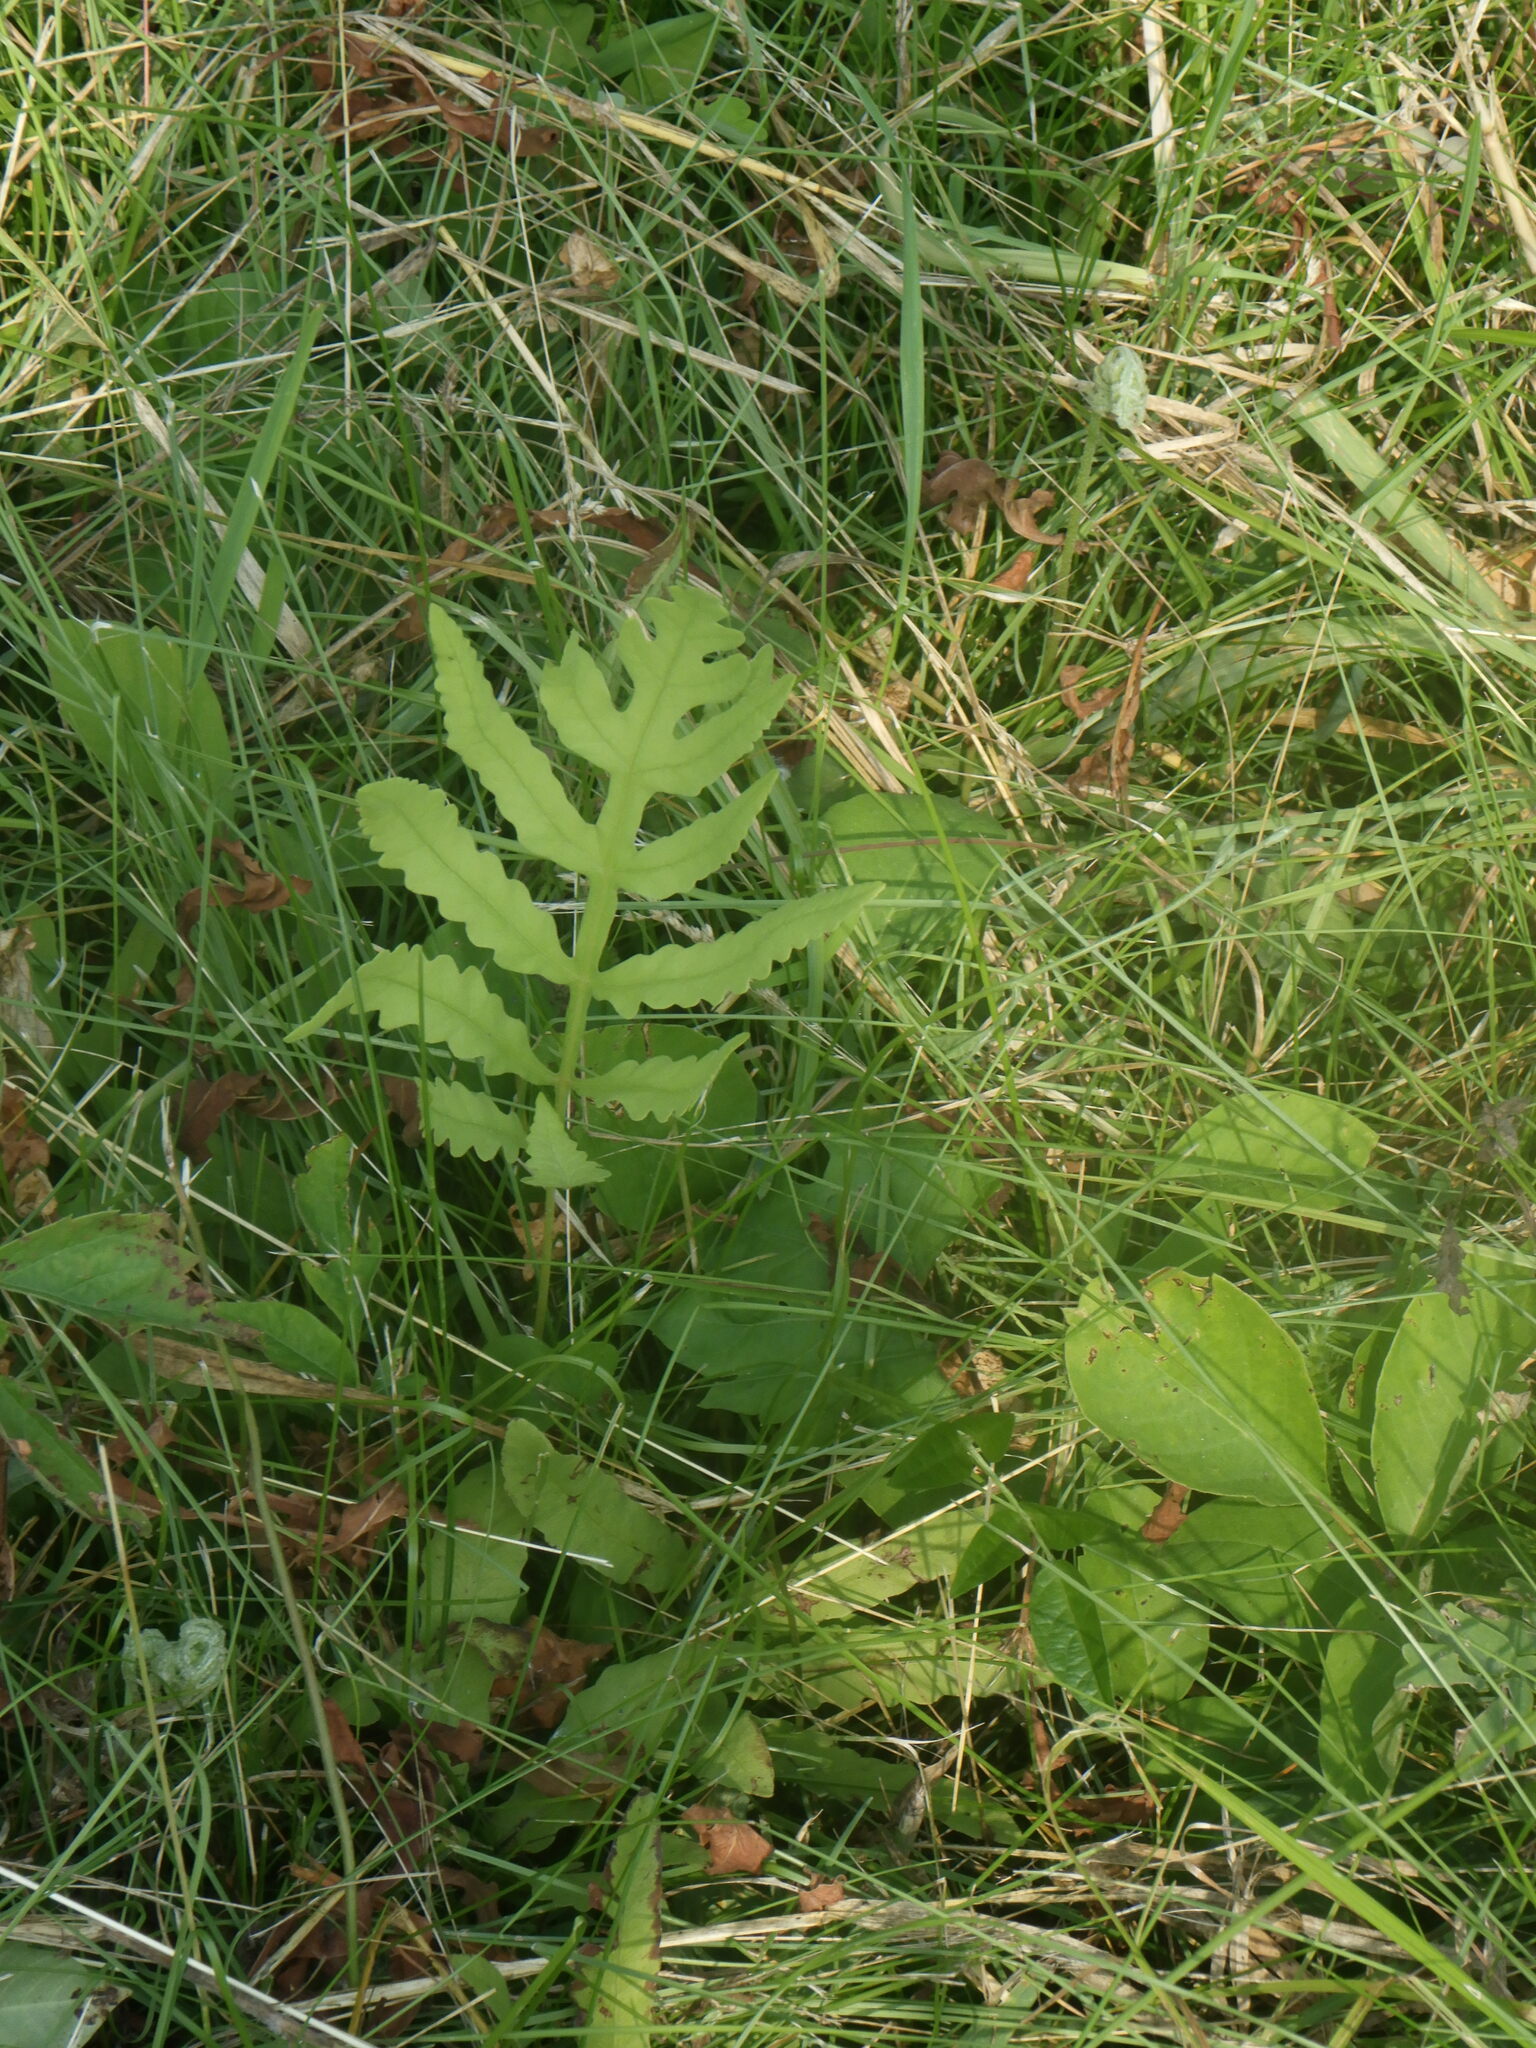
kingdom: Plantae
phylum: Tracheophyta
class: Polypodiopsida
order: Polypodiales
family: Onocleaceae
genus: Onoclea
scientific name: Onoclea sensibilis
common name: Sensitive fern
